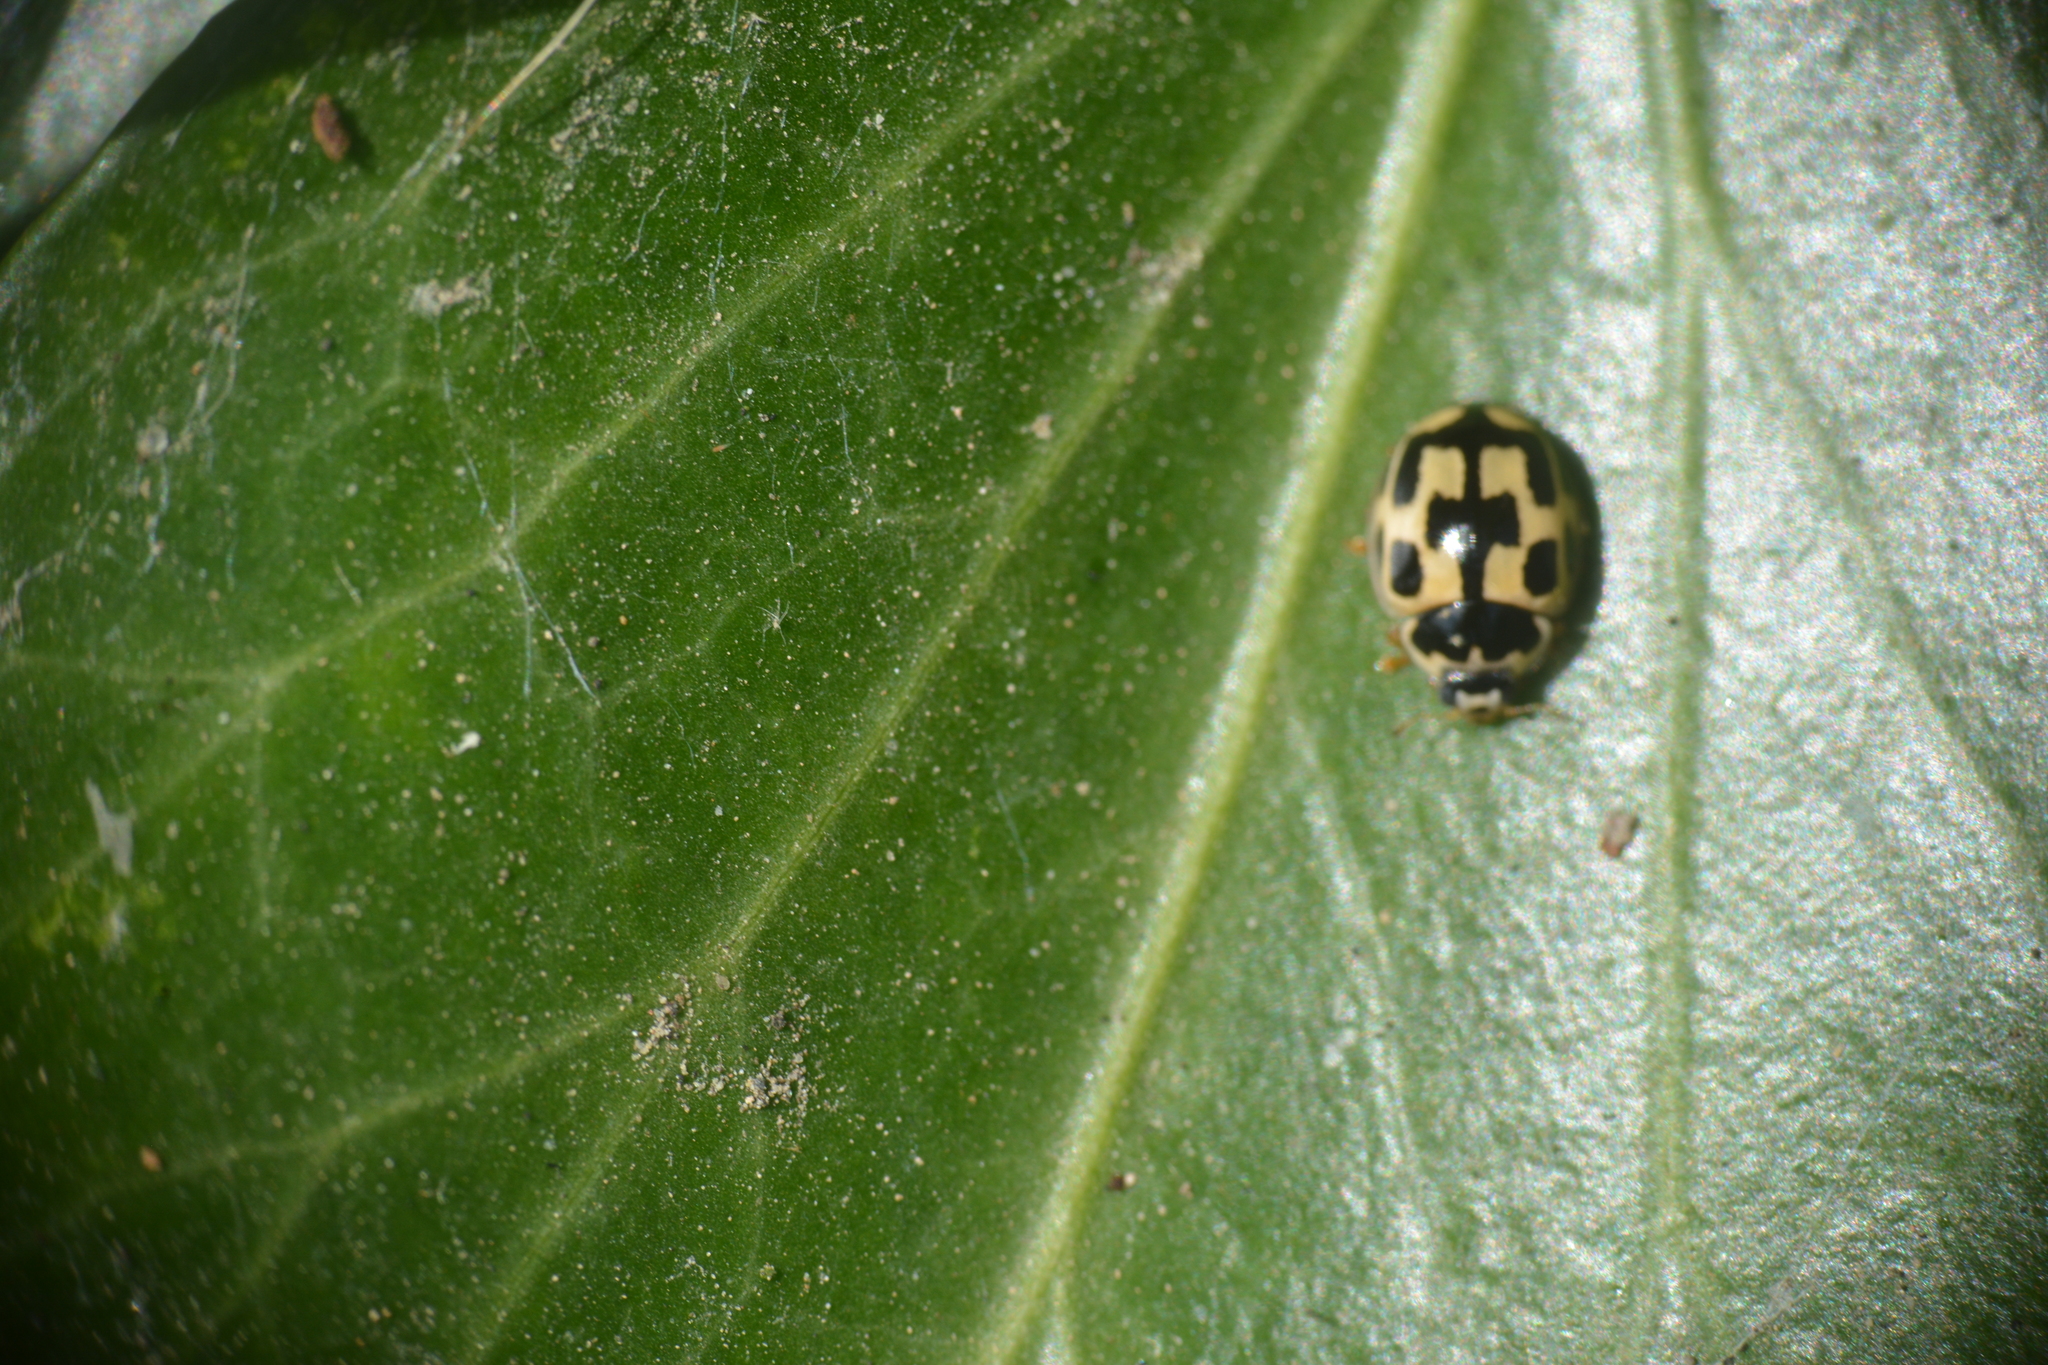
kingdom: Animalia
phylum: Arthropoda
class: Insecta
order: Coleoptera
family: Coccinellidae
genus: Propylaea
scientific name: Propylaea quatuordecimpunctata
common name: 14-spotted ladybird beetle
